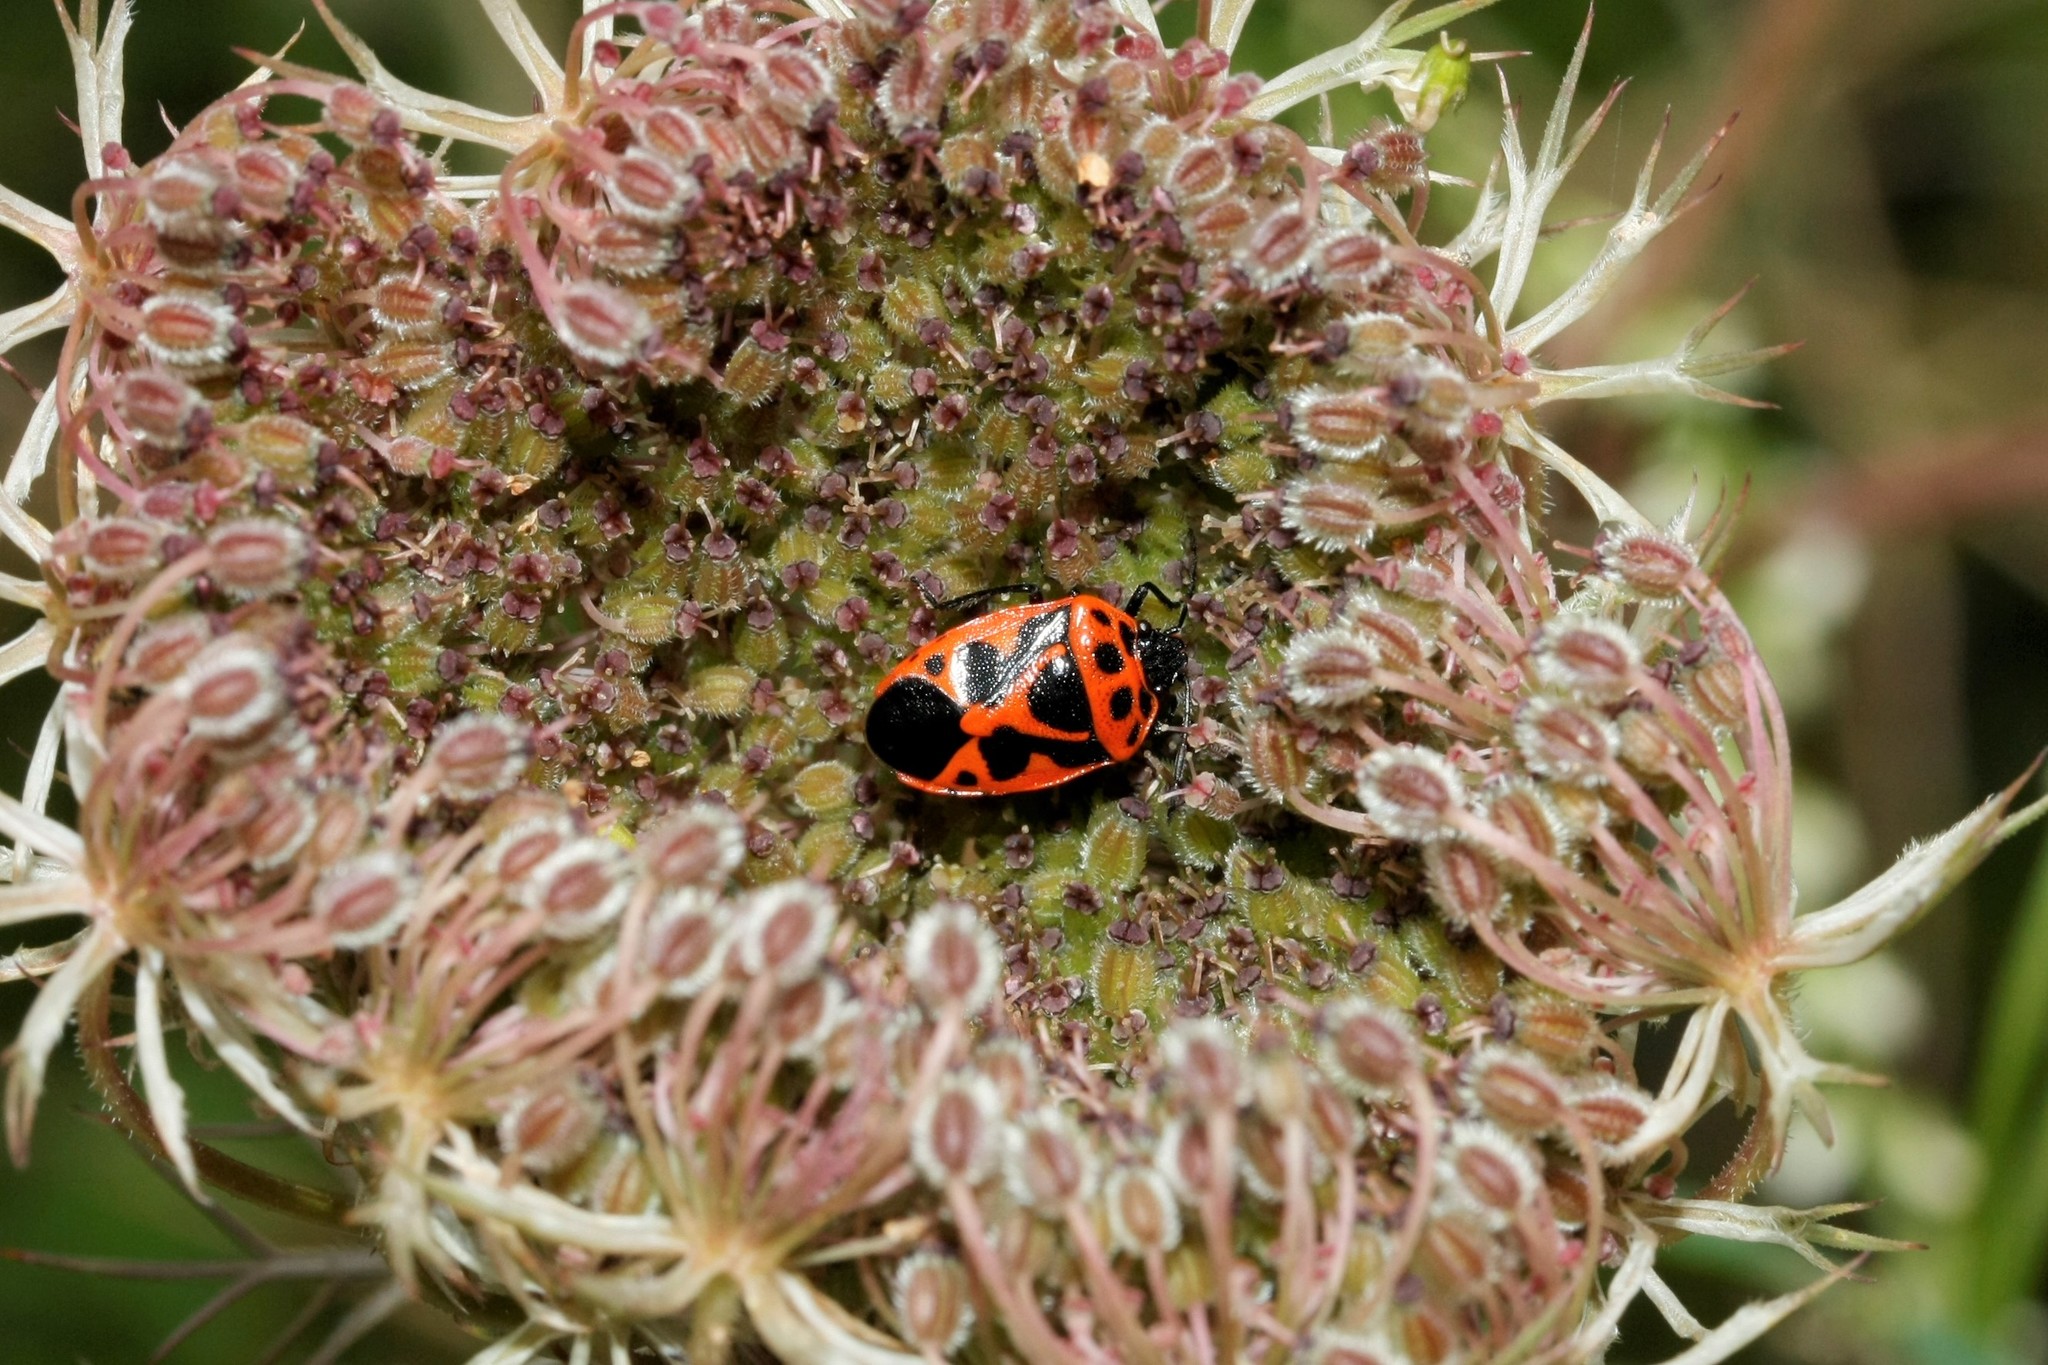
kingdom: Animalia
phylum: Arthropoda
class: Insecta
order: Hemiptera
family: Pentatomidae
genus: Eurydema
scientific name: Eurydema dominulus
